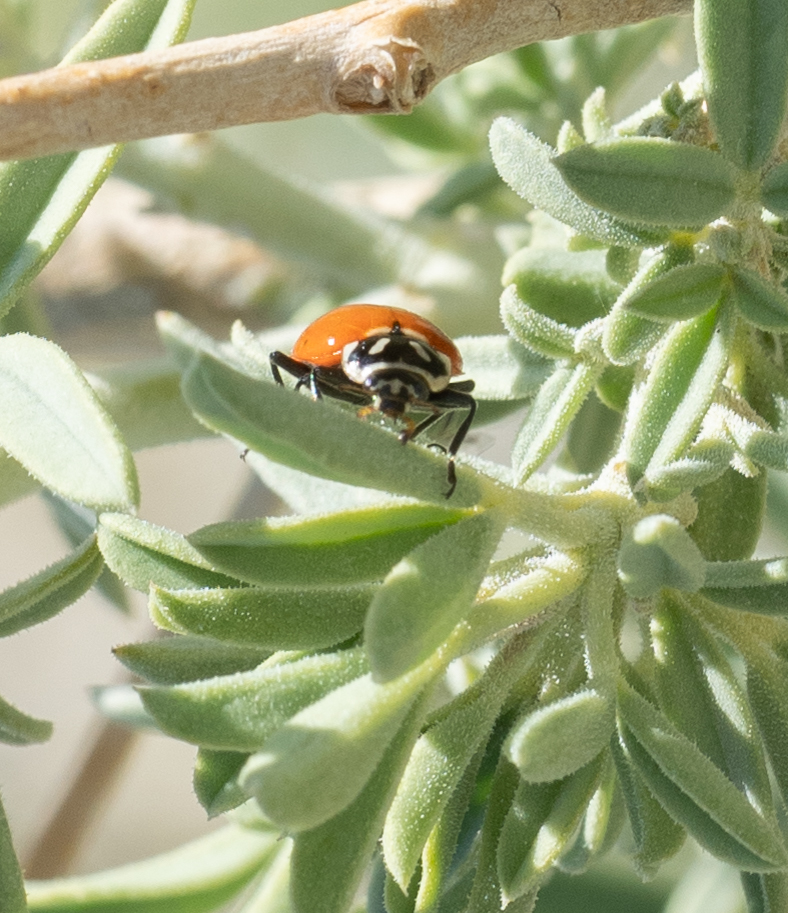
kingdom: Animalia
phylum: Arthropoda
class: Insecta
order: Coleoptera
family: Coccinellidae
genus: Hippodamia
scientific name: Hippodamia convergens
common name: Convergent lady beetle
